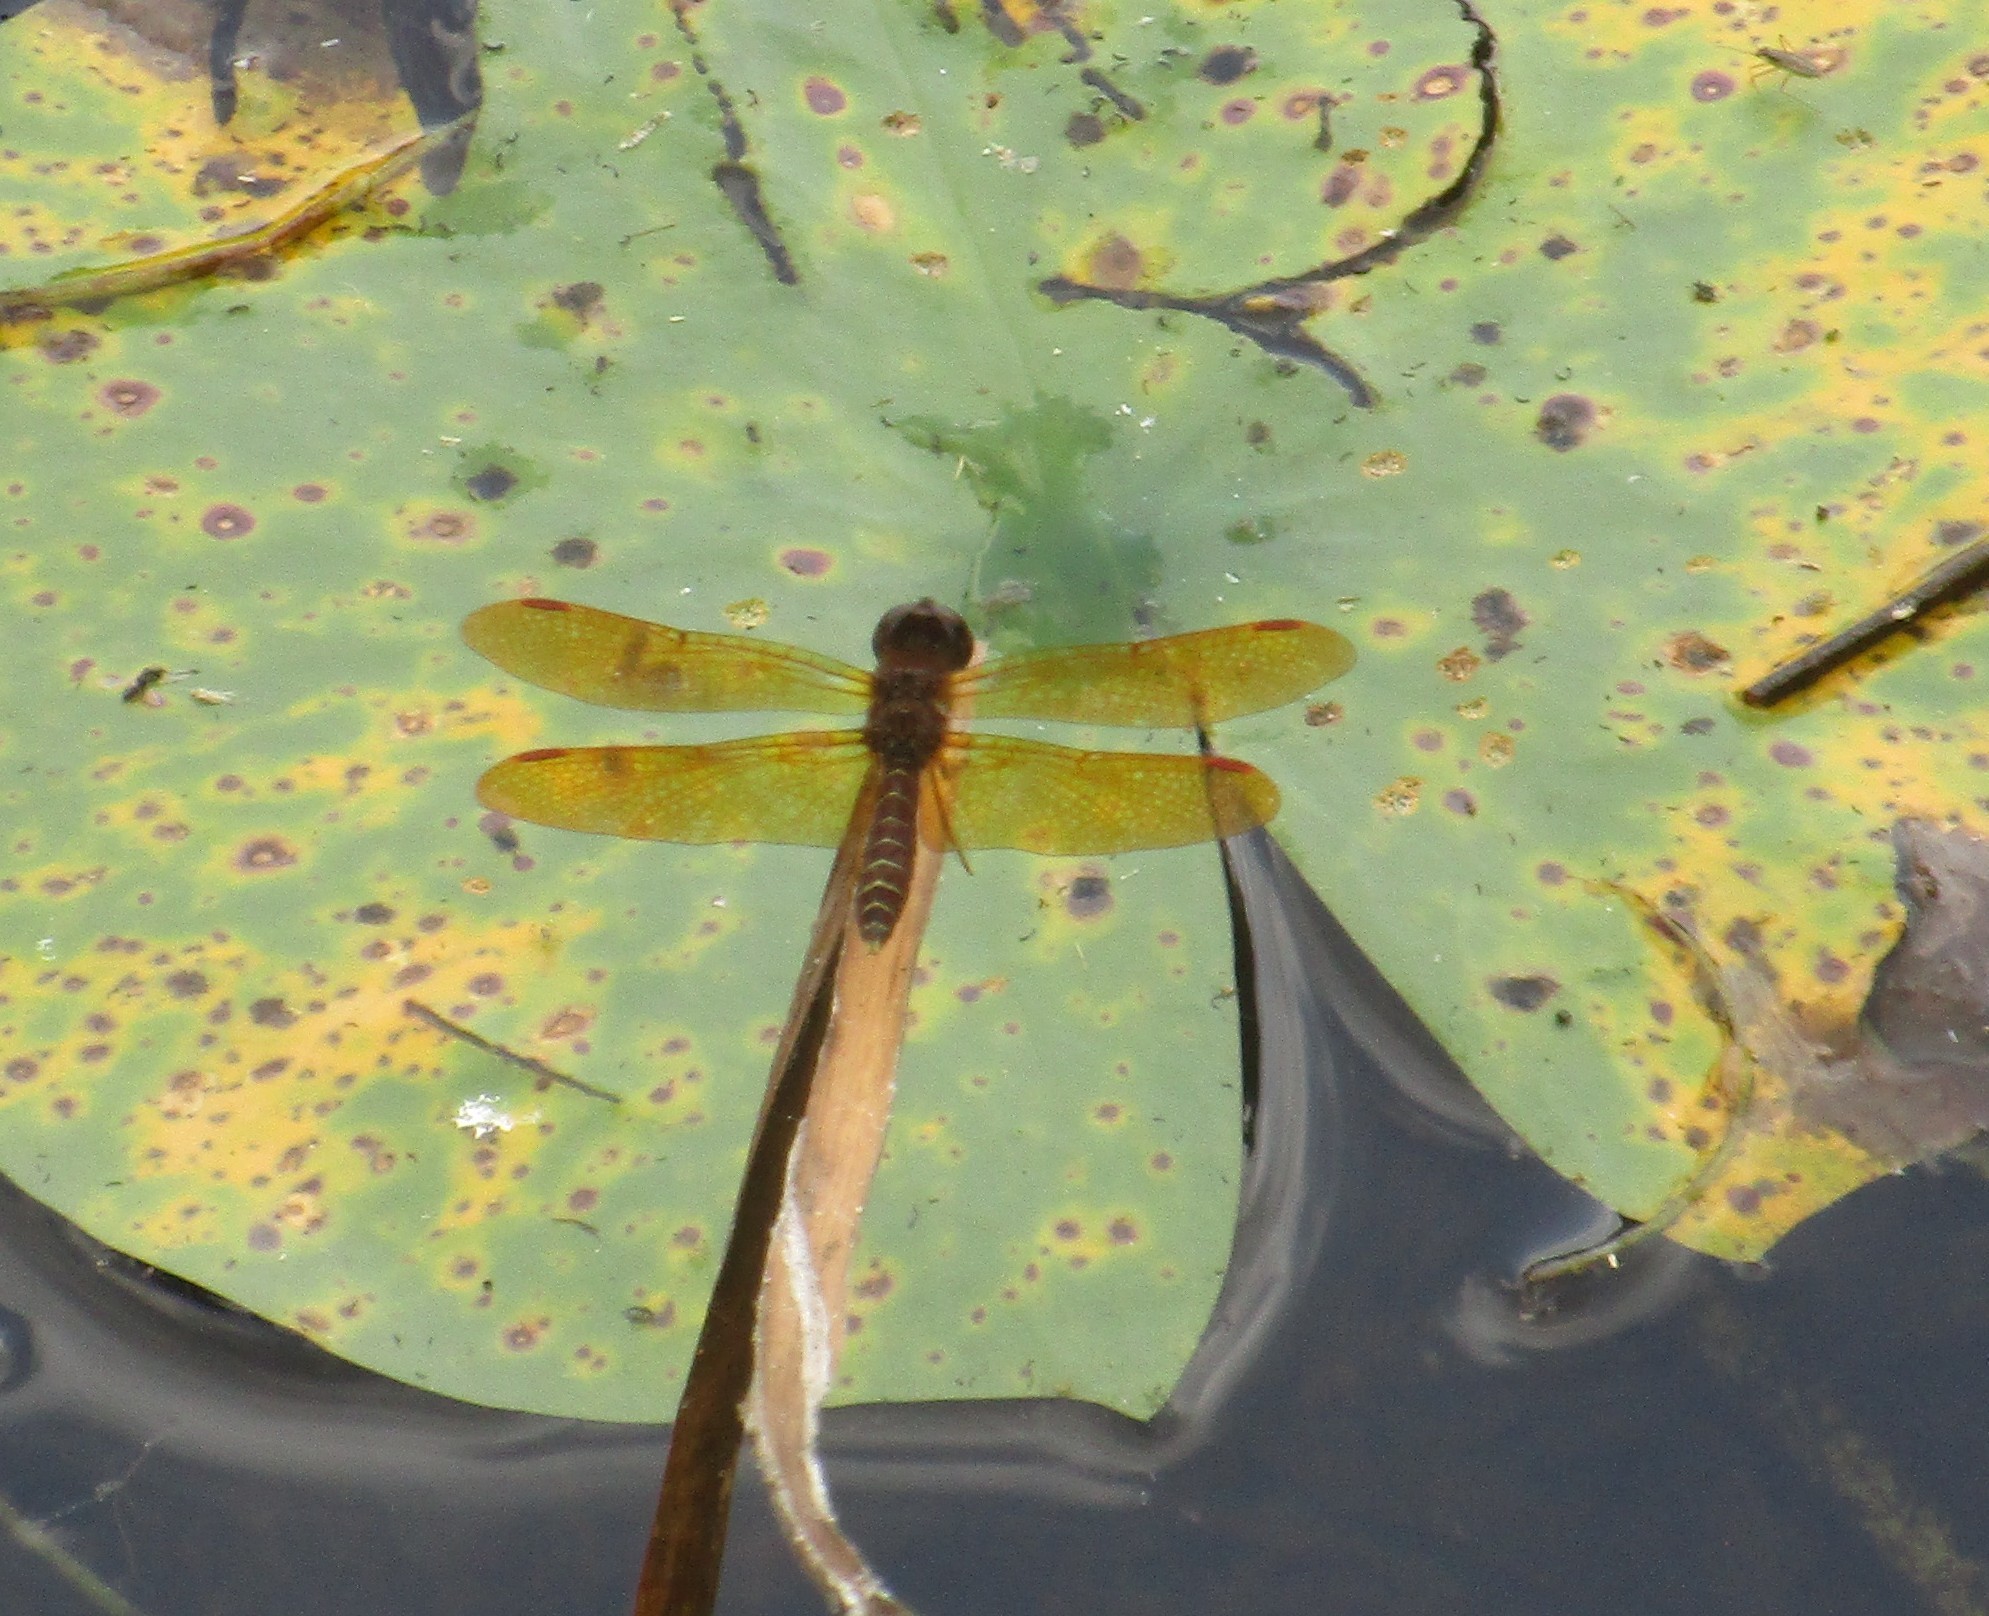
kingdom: Animalia
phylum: Arthropoda
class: Insecta
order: Odonata
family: Libellulidae
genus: Perithemis
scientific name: Perithemis tenera
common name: Eastern amberwing
